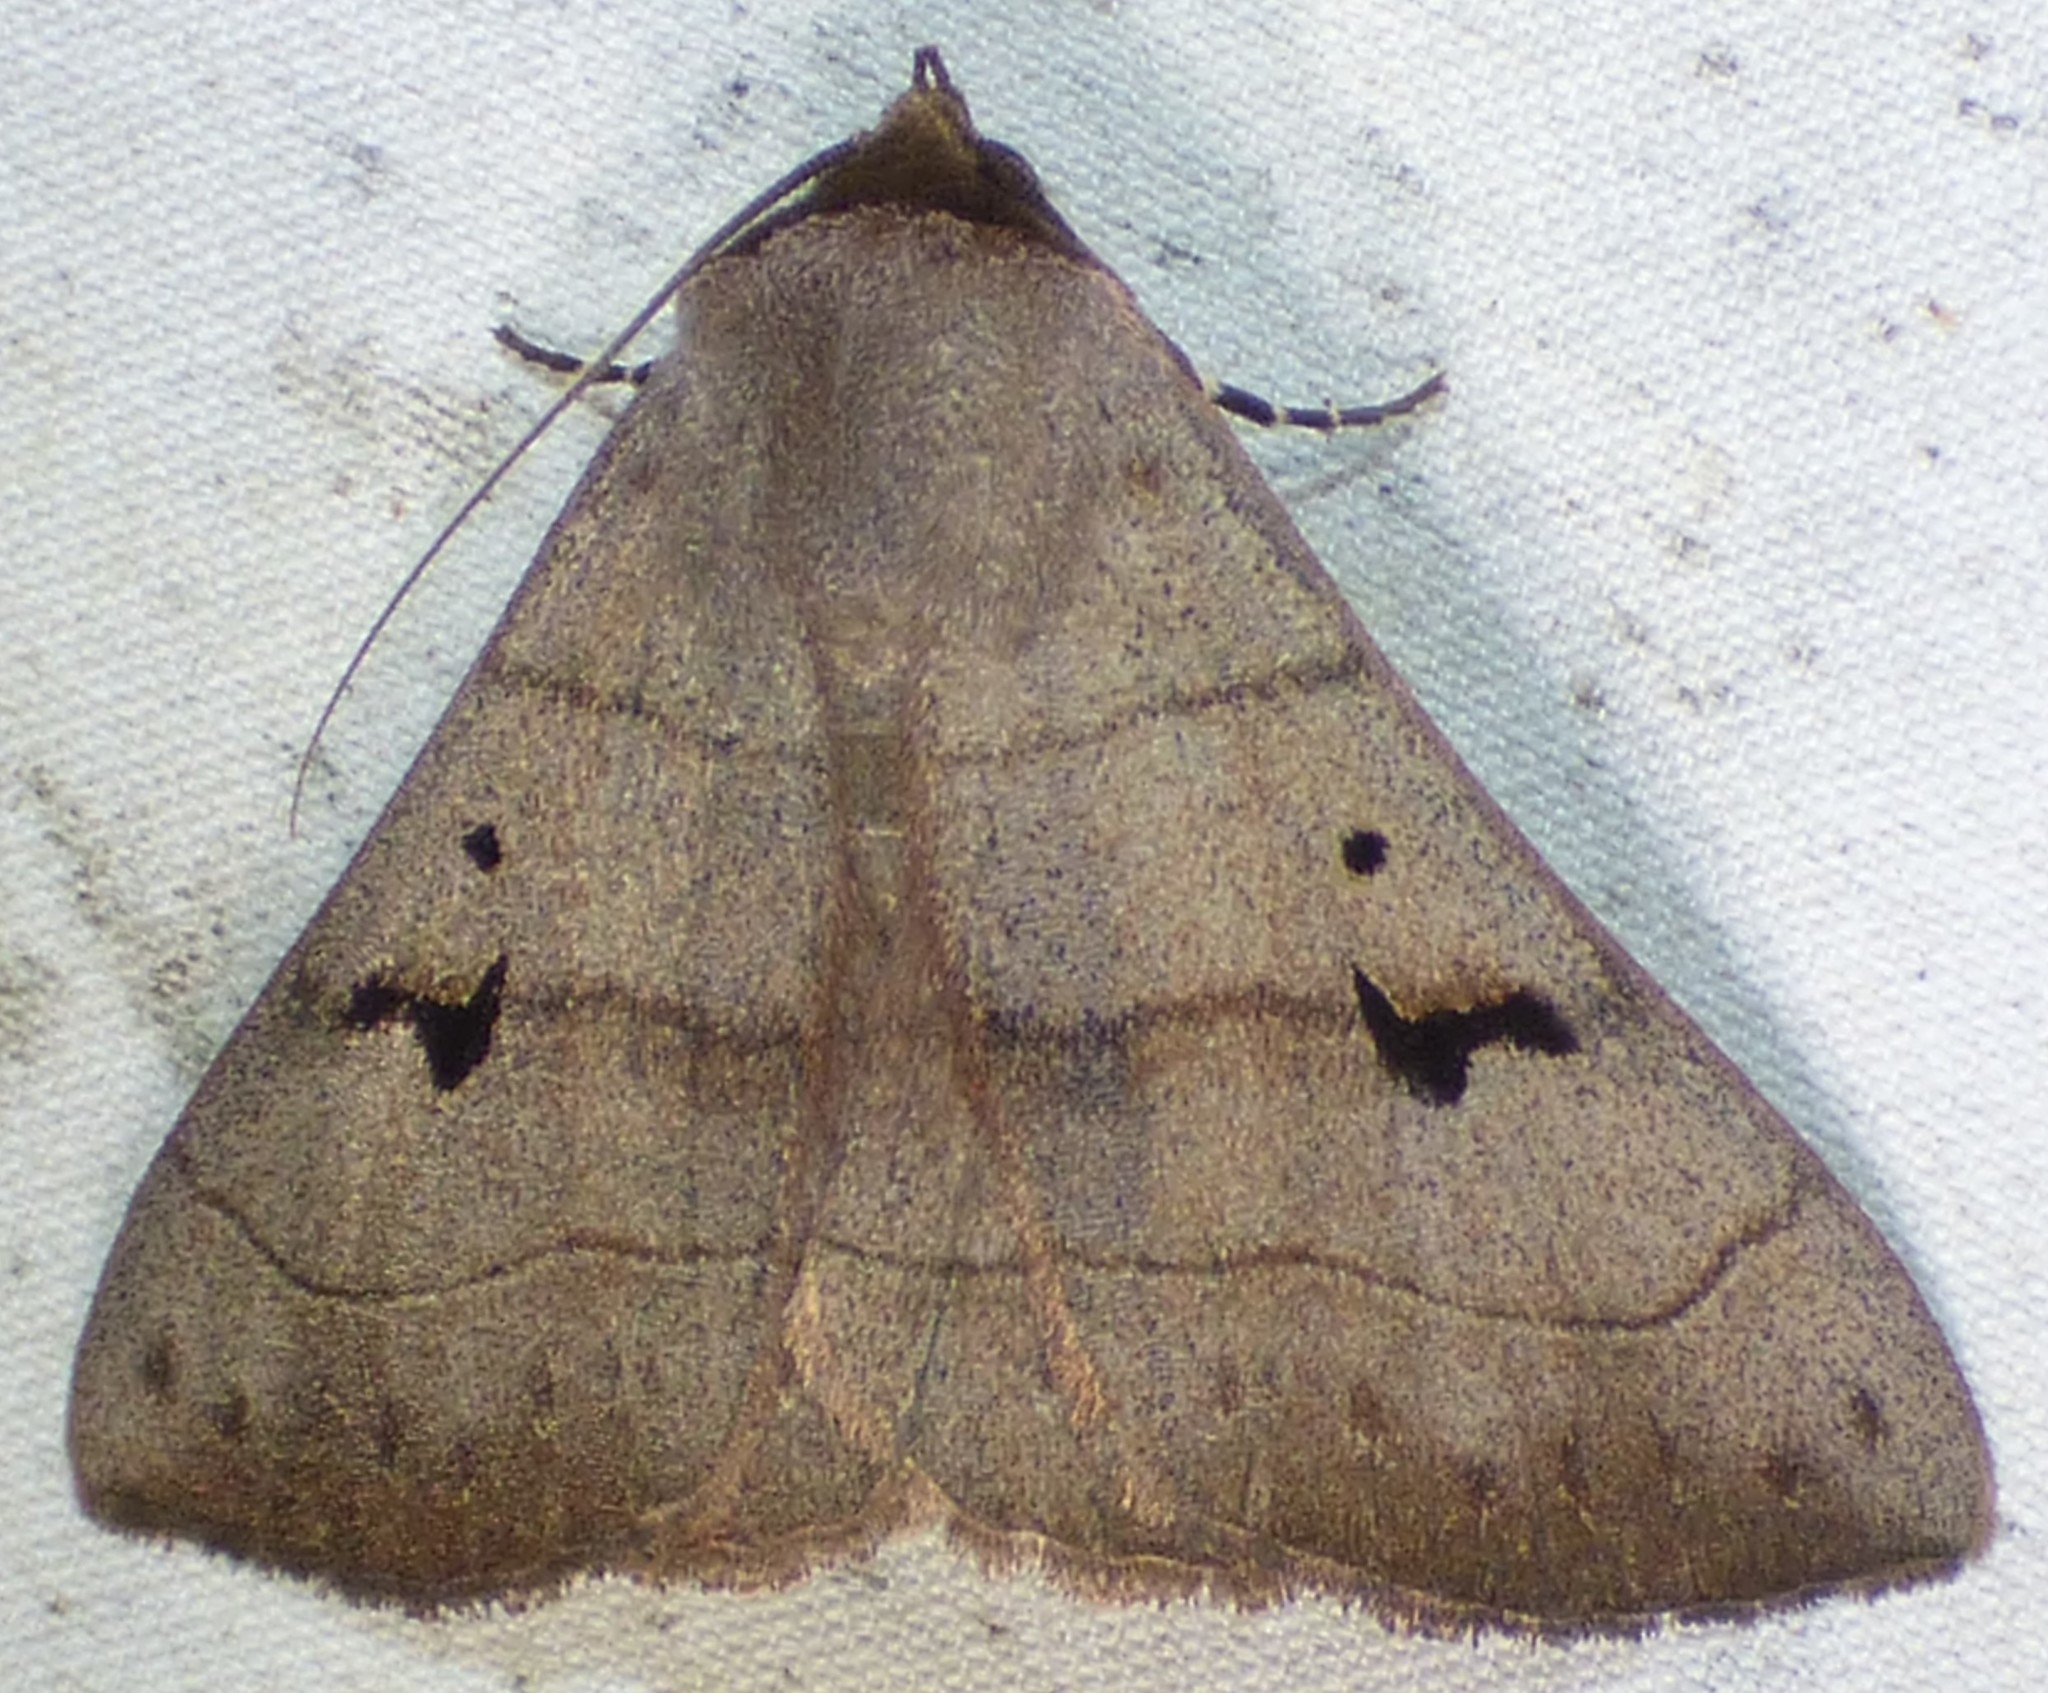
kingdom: Animalia
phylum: Arthropoda
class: Insecta
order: Lepidoptera
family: Erebidae
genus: Panopoda
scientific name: Panopoda carneicosta
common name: Brown panopoda moth
